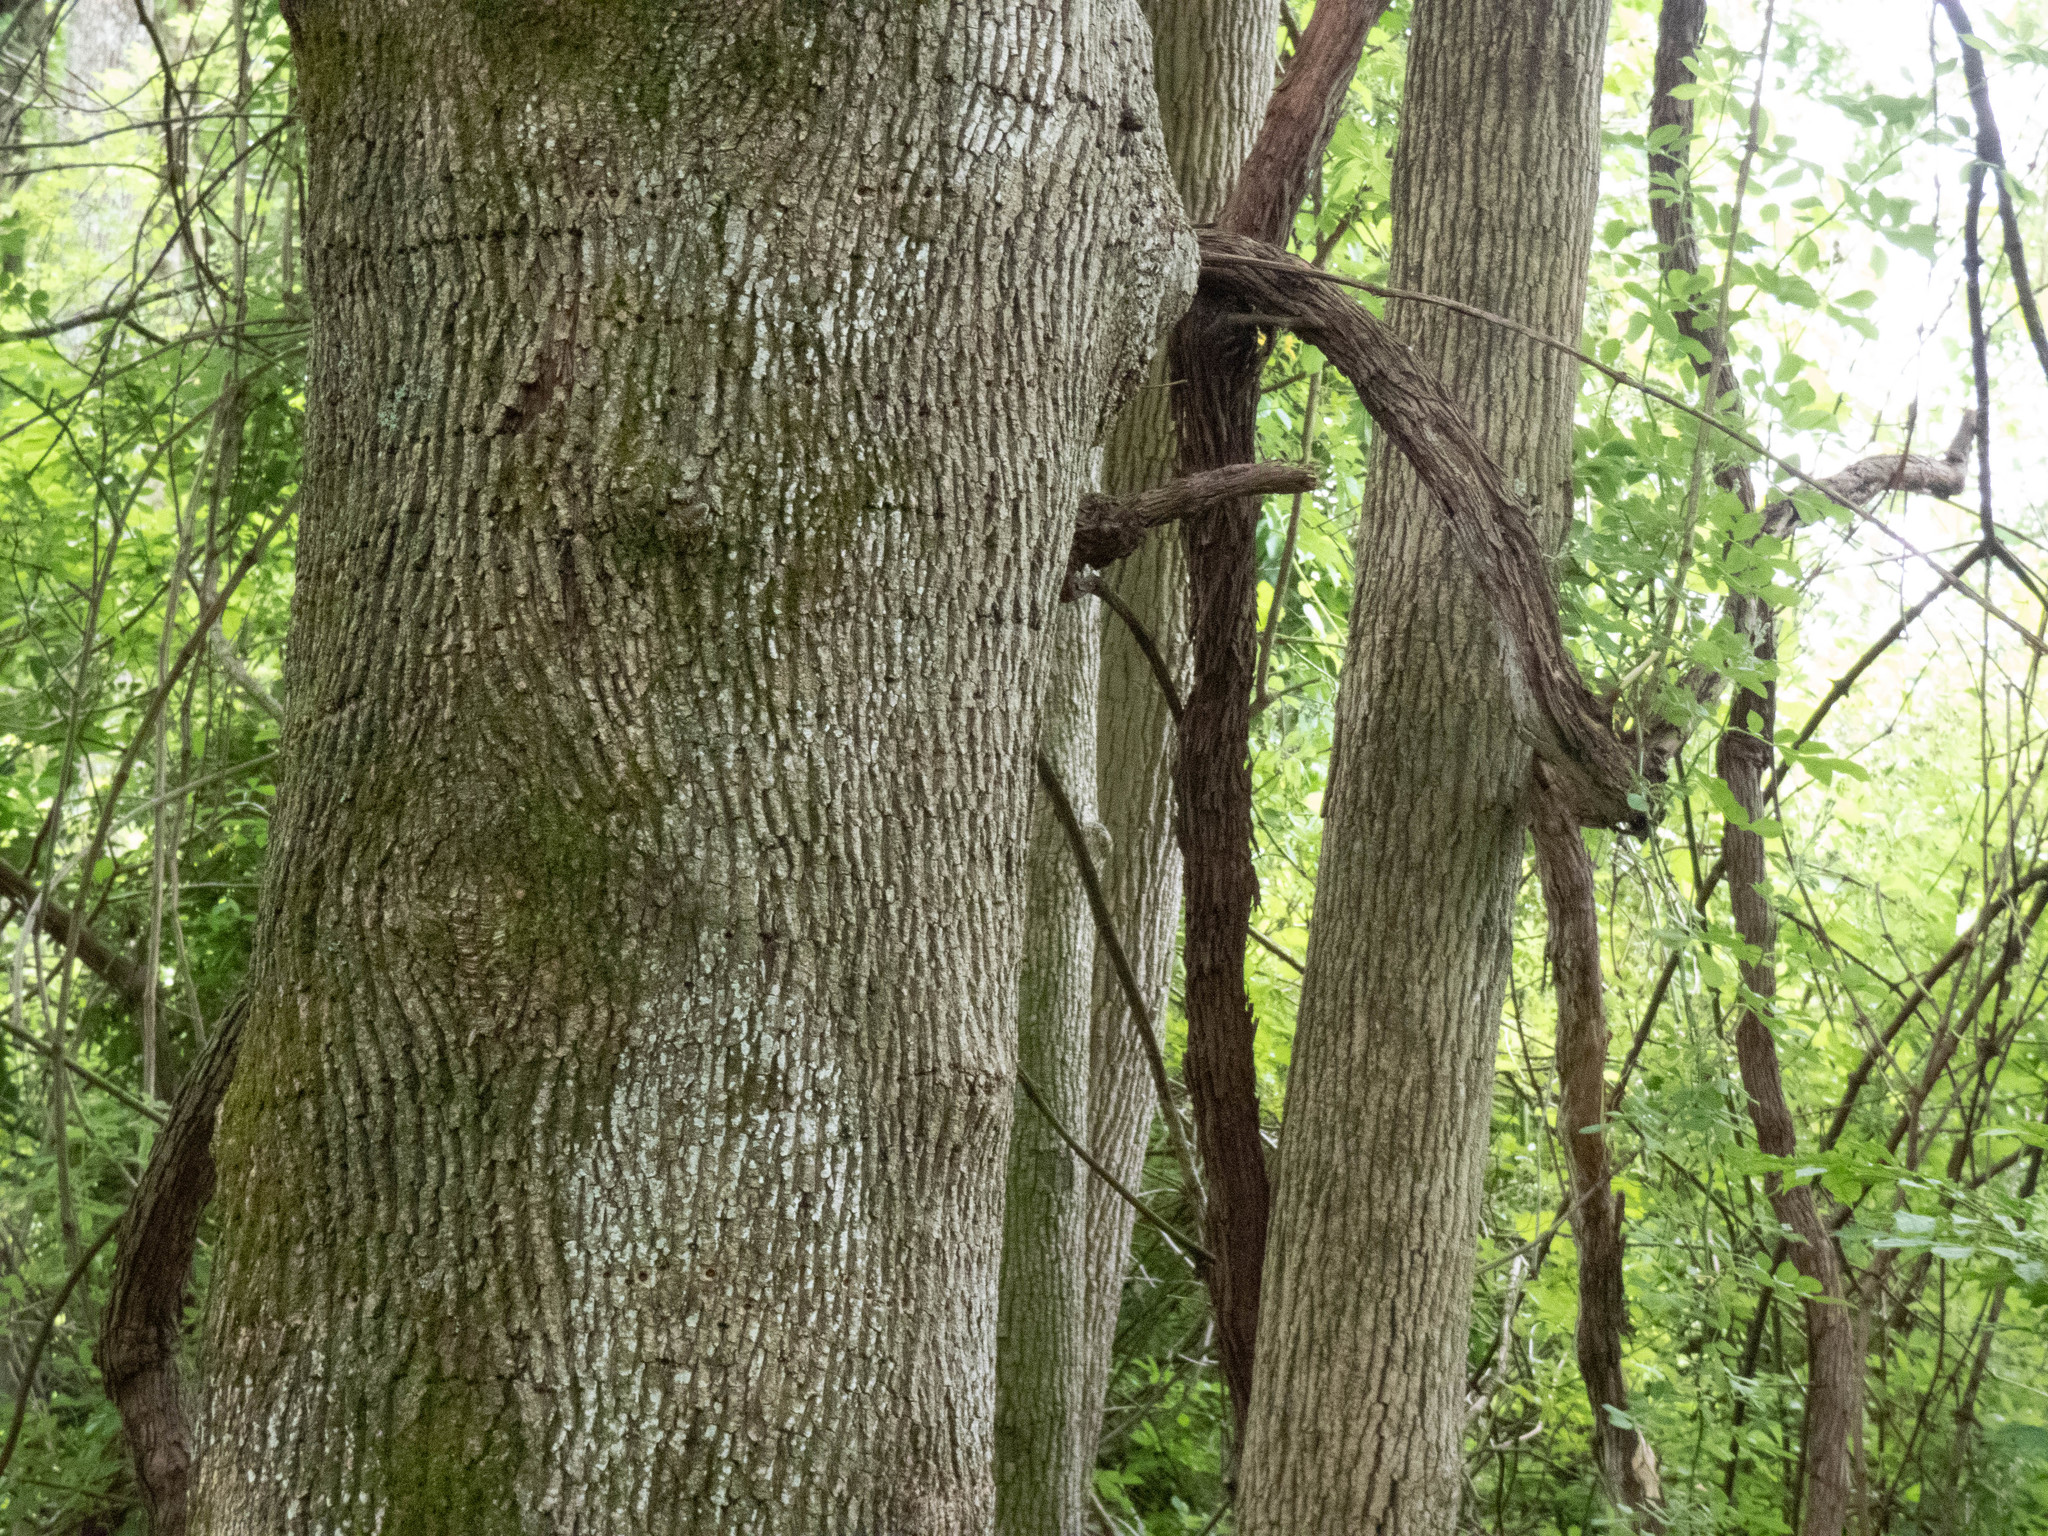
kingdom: Plantae
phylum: Tracheophyta
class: Magnoliopsida
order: Sapindales
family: Sapindaceae
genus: Acer
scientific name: Acer platanoides
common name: Norway maple
